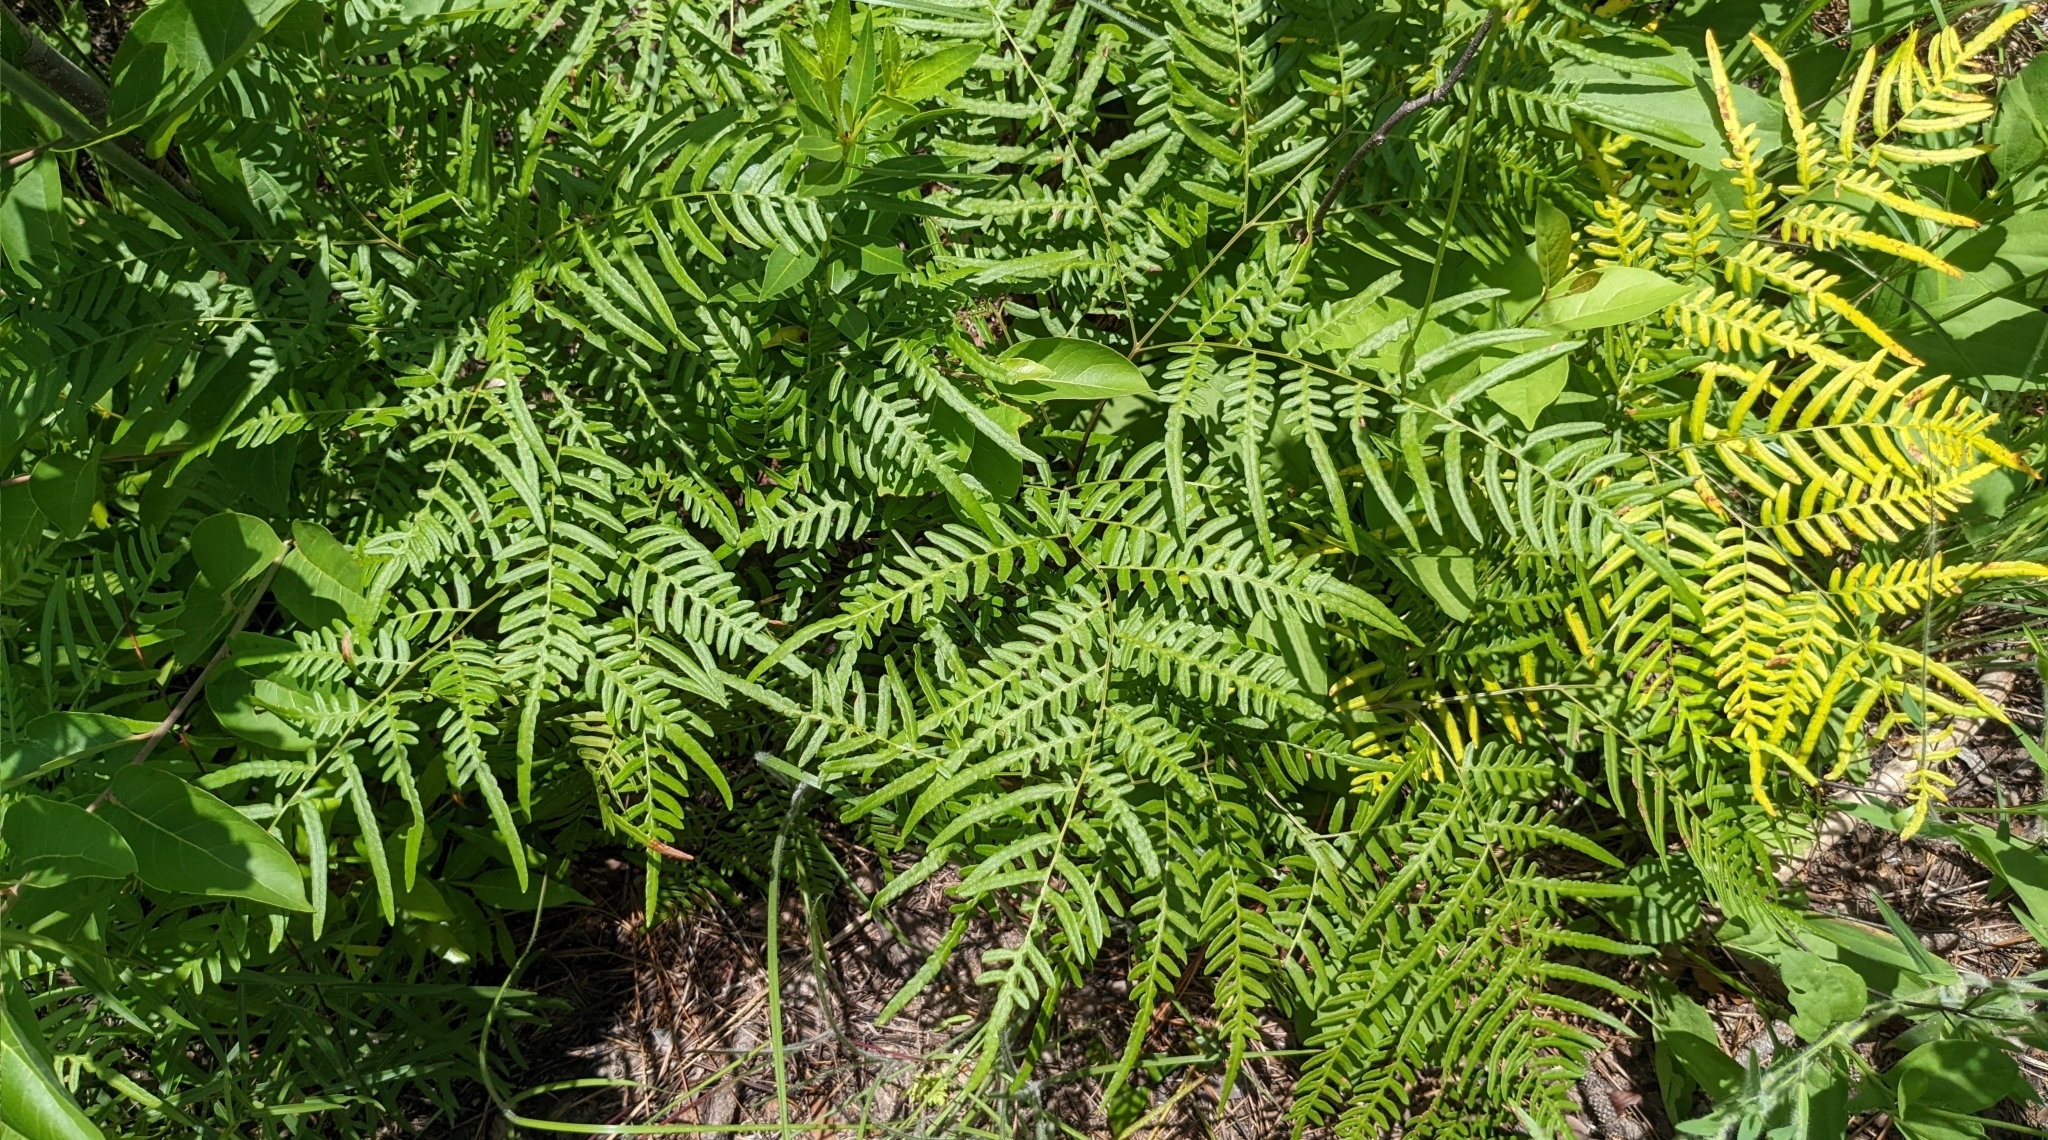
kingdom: Plantae
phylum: Tracheophyta
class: Polypodiopsida
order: Polypodiales
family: Dennstaedtiaceae
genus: Pteridium
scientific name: Pteridium aquilinum
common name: Bracken
